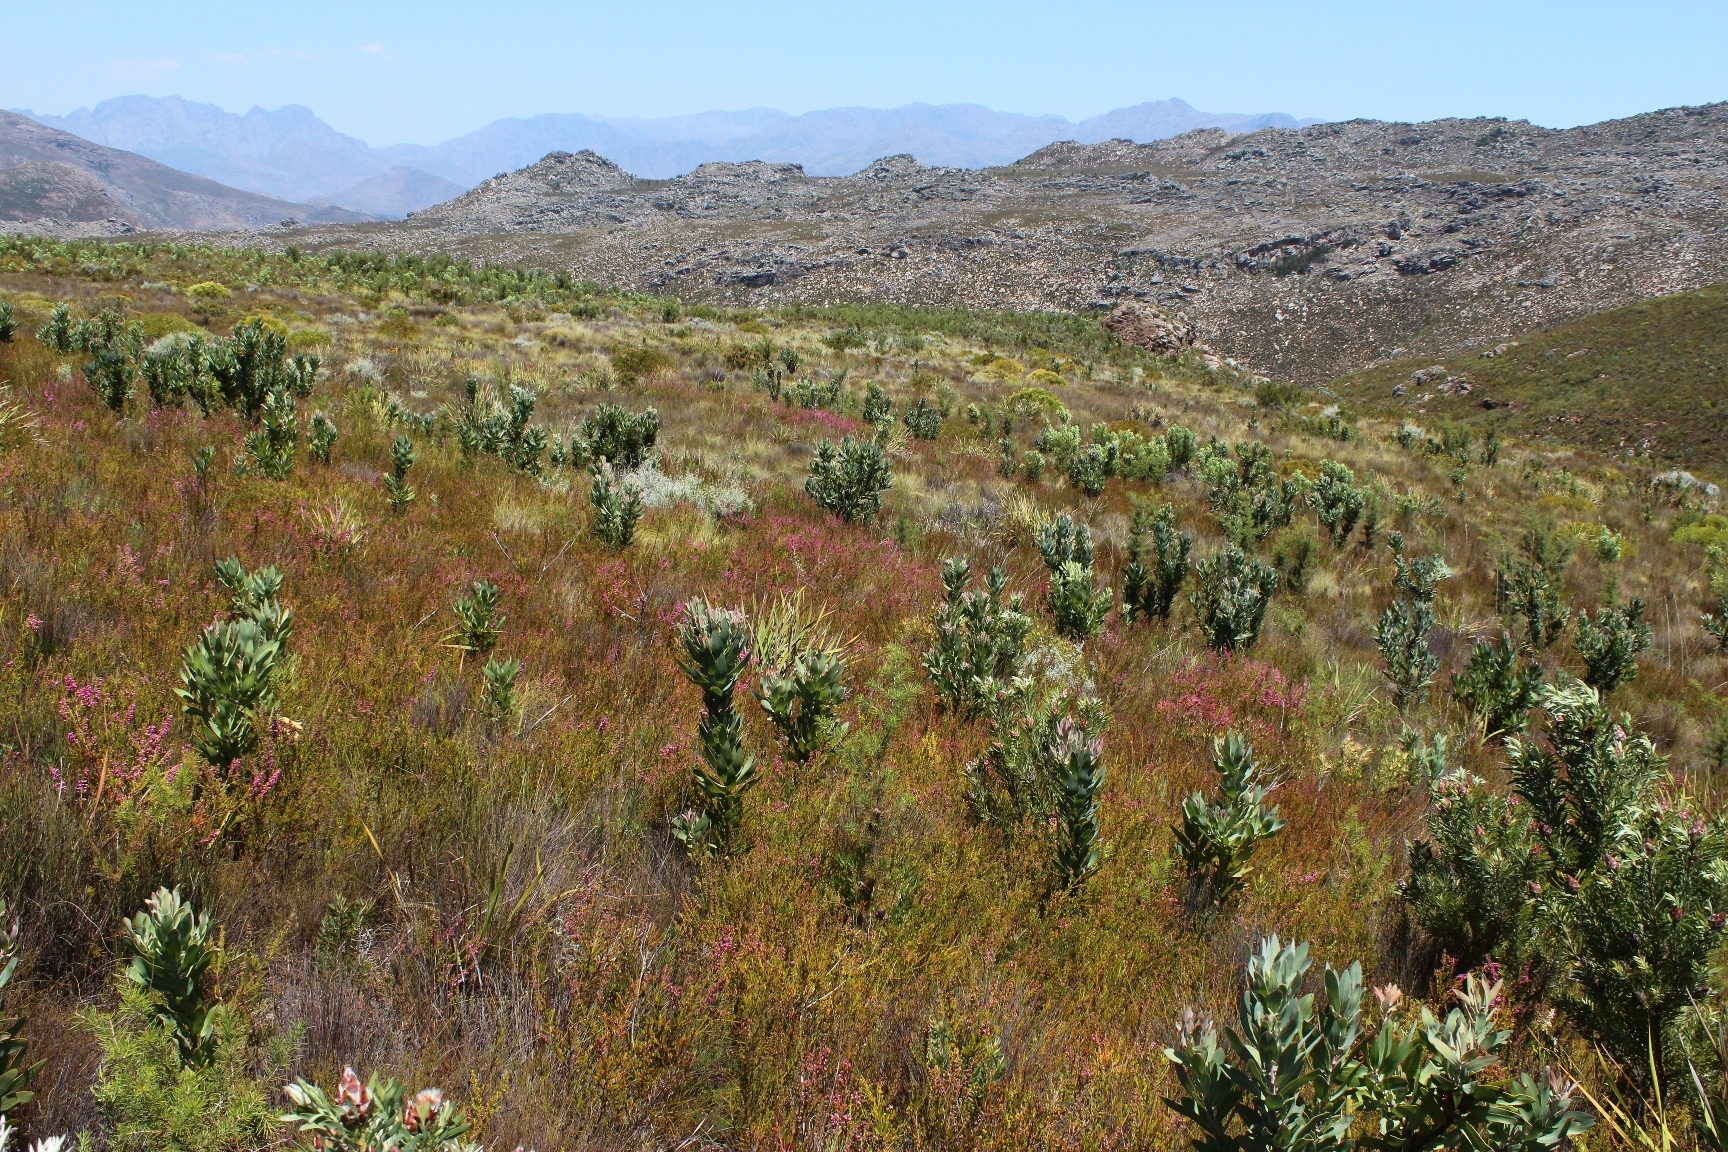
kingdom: Plantae
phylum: Tracheophyta
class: Magnoliopsida
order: Proteales
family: Proteaceae
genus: Protea
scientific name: Protea laurifolia
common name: Grey-leaf sugarbsh
